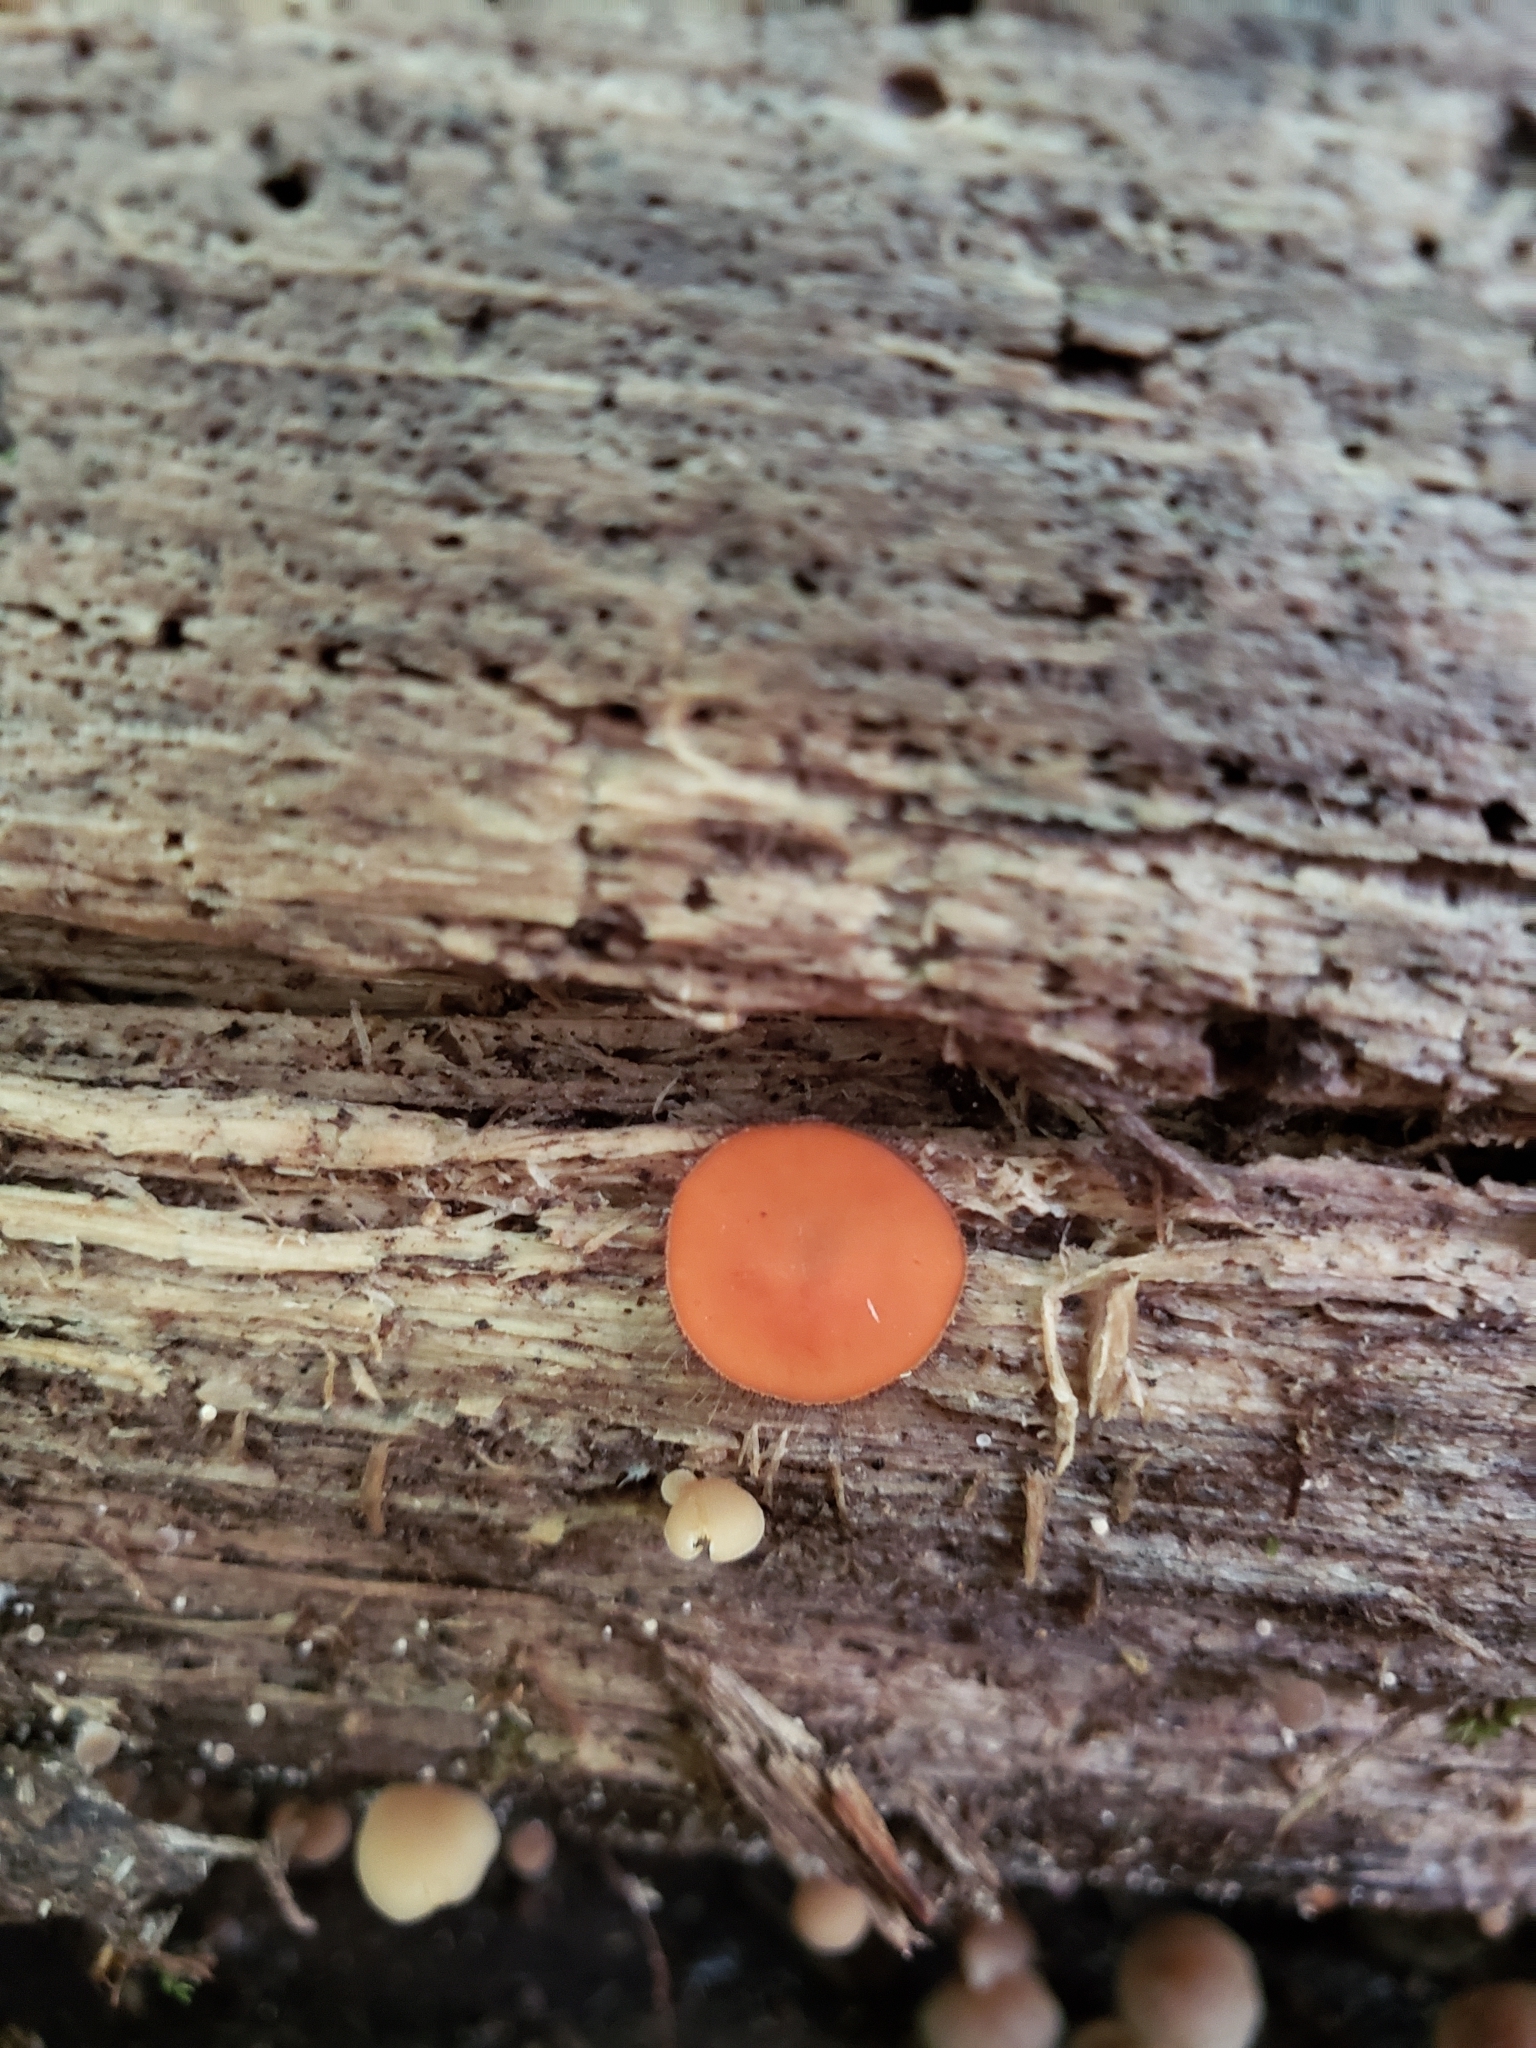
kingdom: Fungi
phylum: Ascomycota
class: Pezizomycetes
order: Pezizales
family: Pyronemataceae
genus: Scutellinia
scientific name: Scutellinia
